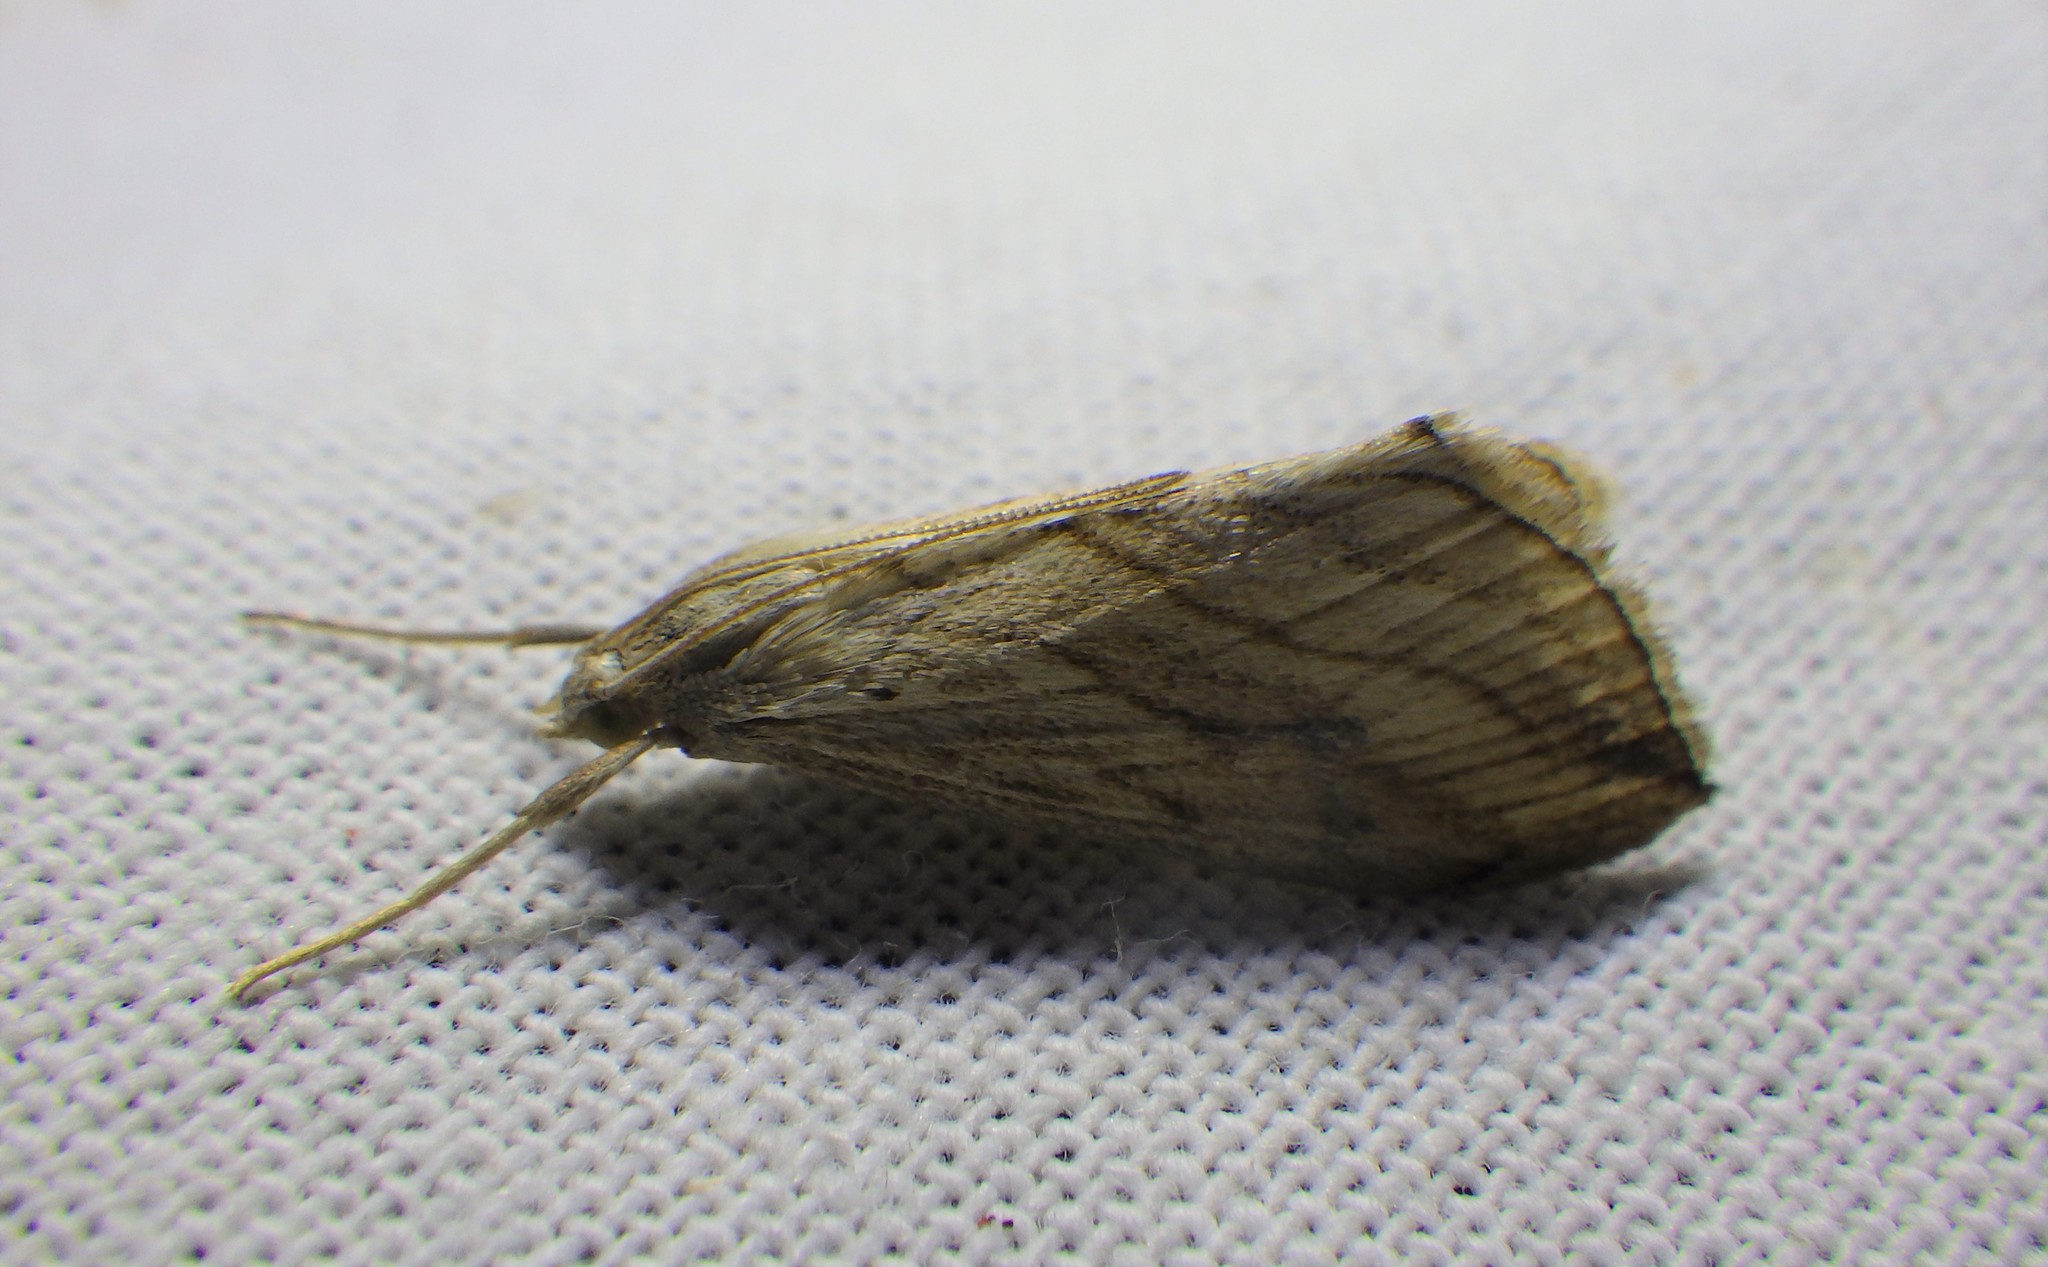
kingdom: Animalia
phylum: Arthropoda
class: Insecta
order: Lepidoptera
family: Crambidae
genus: Evergestis
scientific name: Evergestis forficalis
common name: Garden pebble
